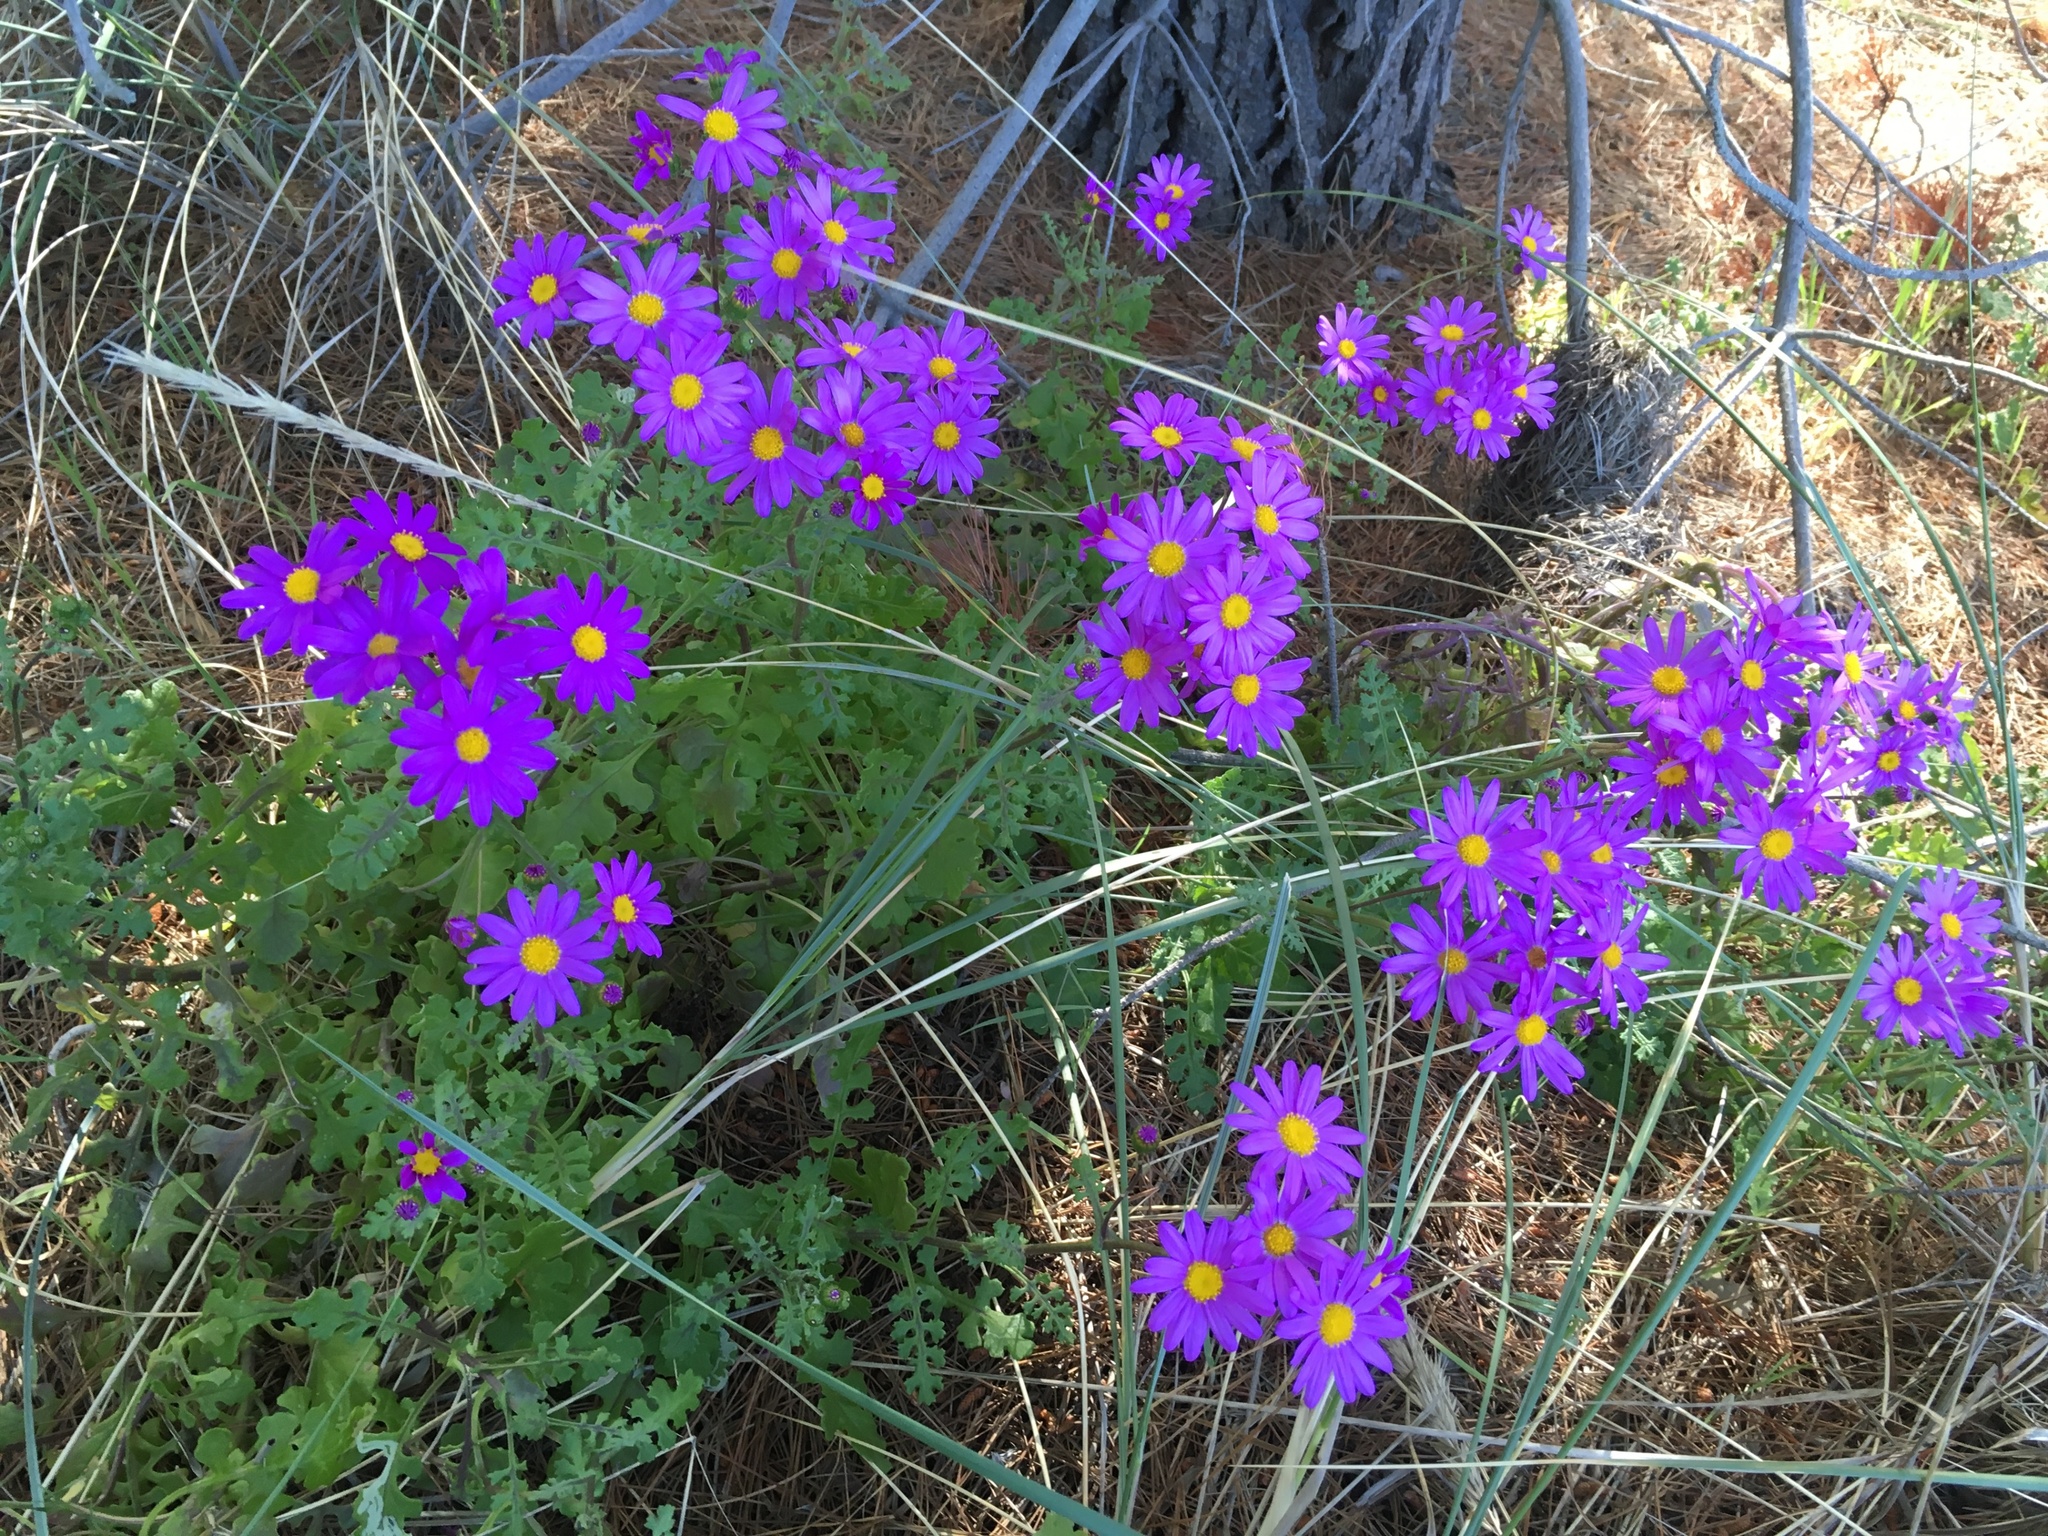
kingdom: Plantae
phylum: Tracheophyta
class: Magnoliopsida
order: Asterales
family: Asteraceae
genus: Senecio
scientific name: Senecio elegans
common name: Purple groundsel
